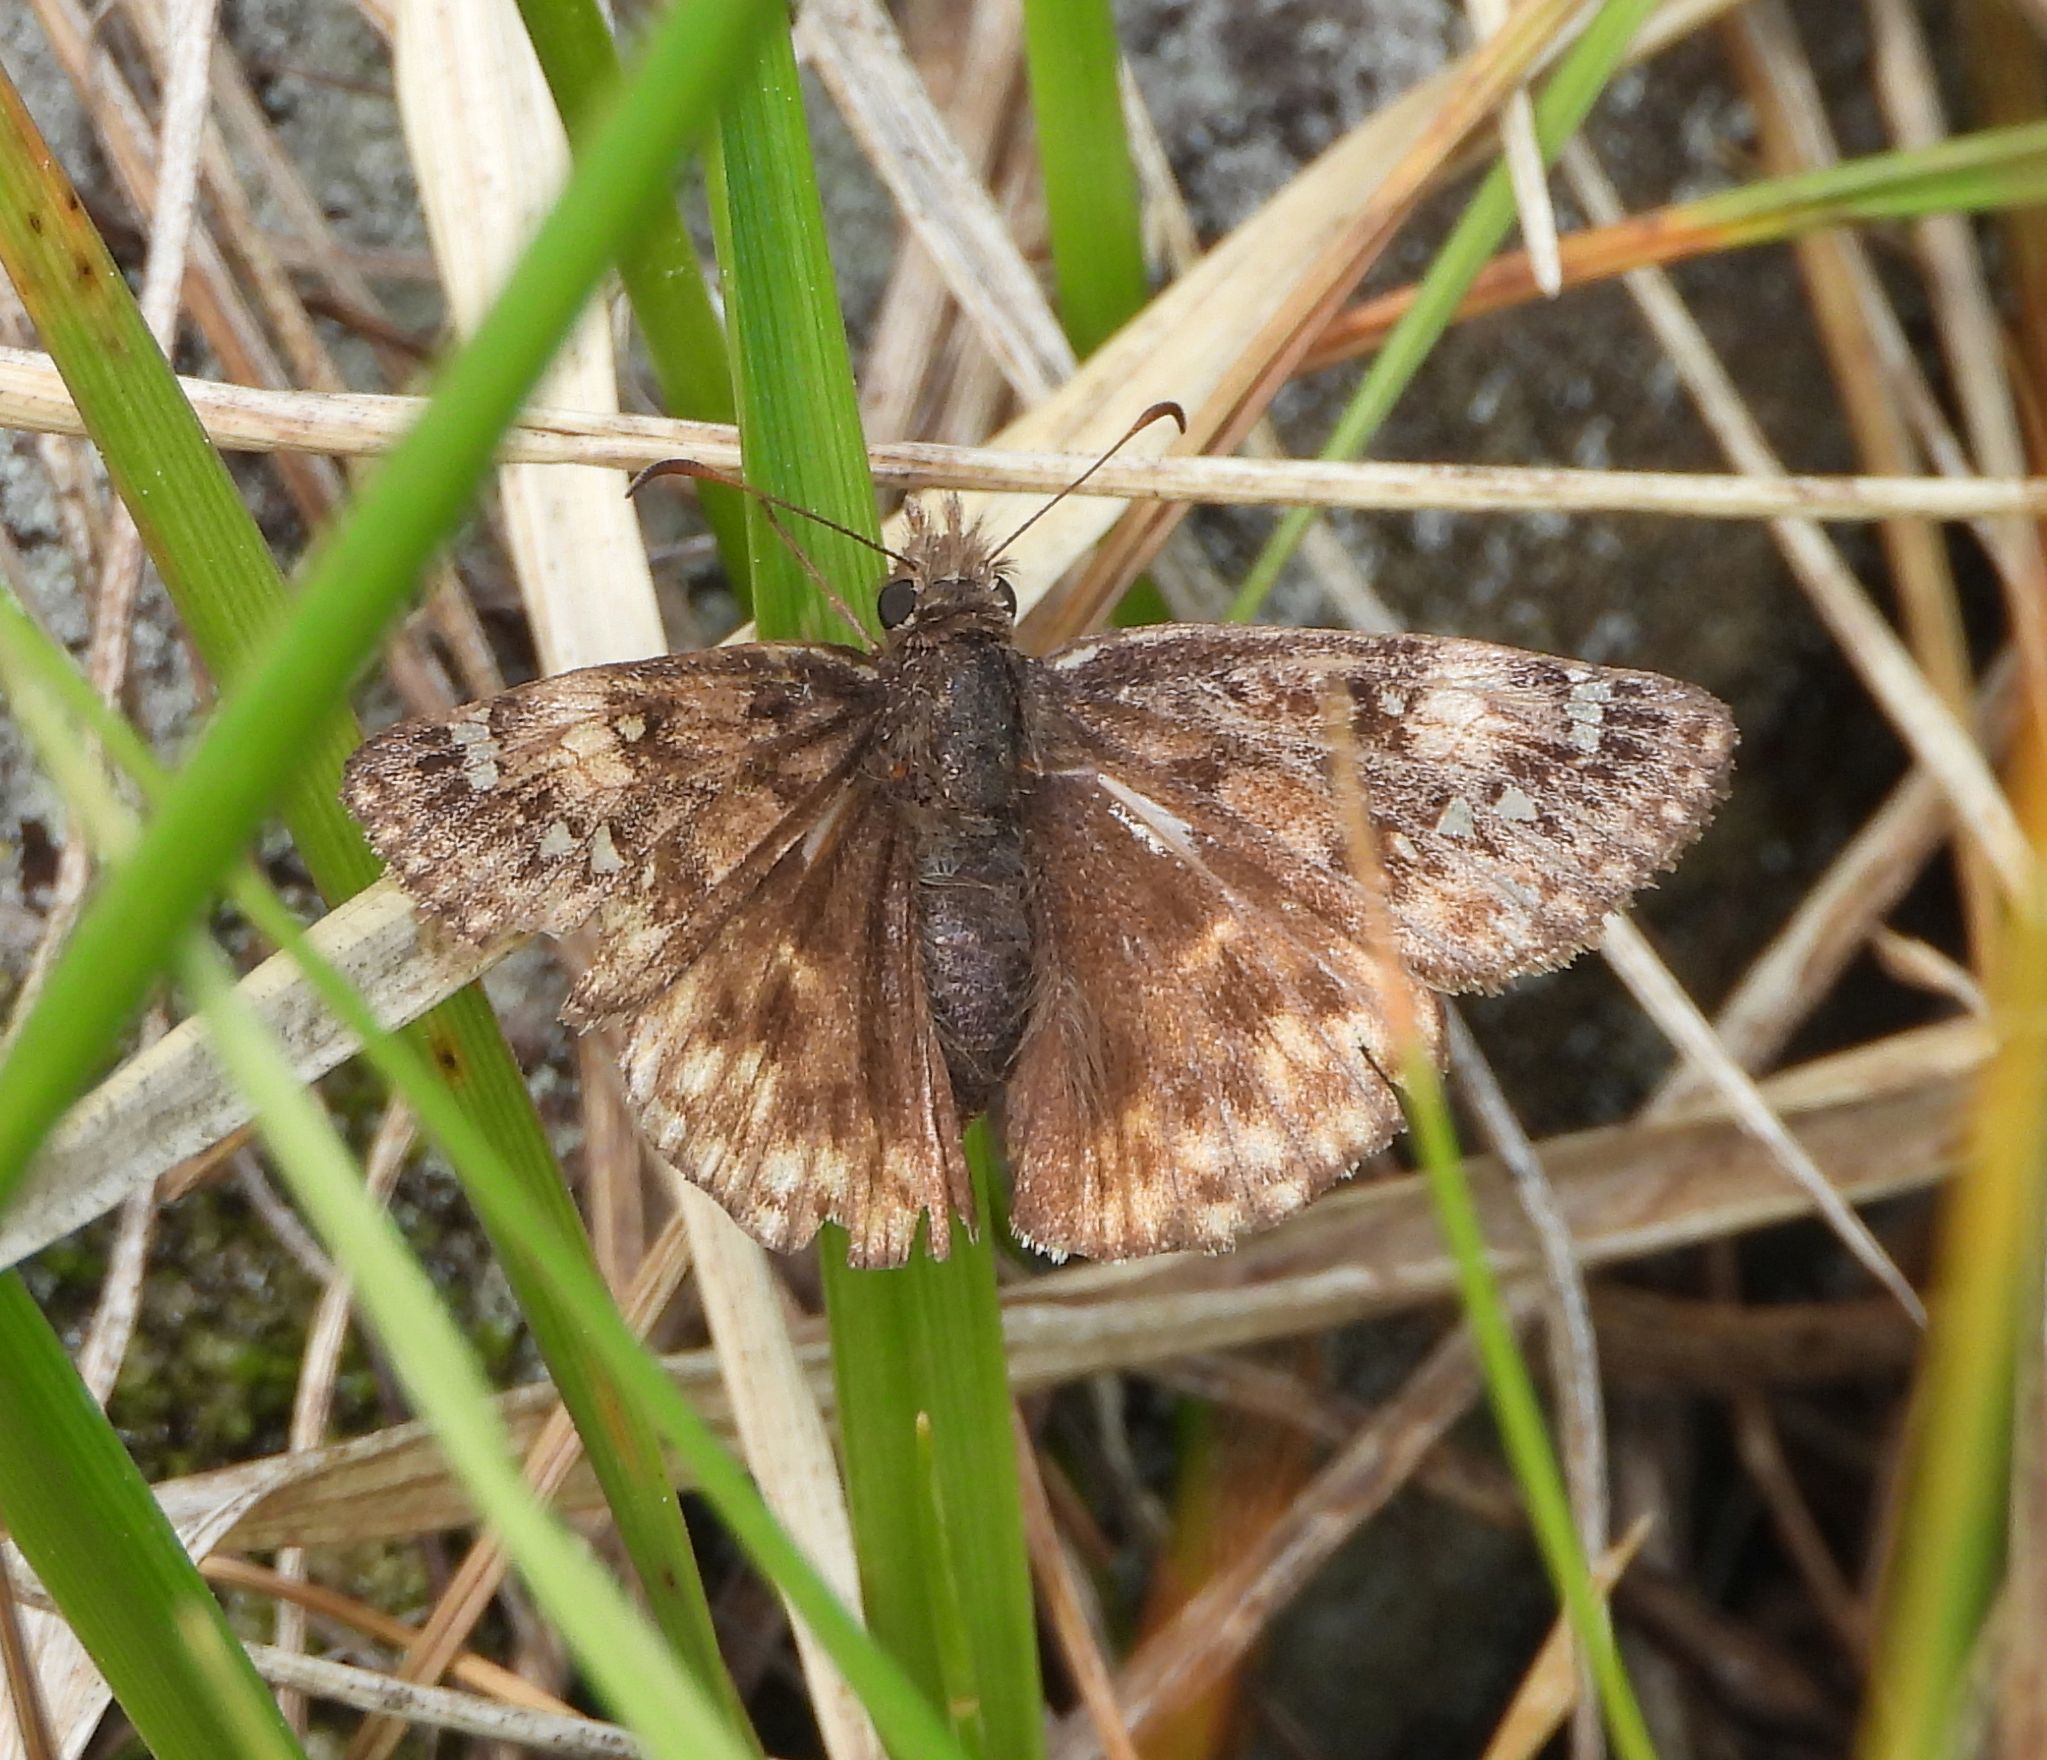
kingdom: Animalia
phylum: Arthropoda
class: Insecta
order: Lepidoptera
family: Hesperiidae
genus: Erynnis
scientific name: Erynnis juvenalis
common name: Juvenal's duskywing
